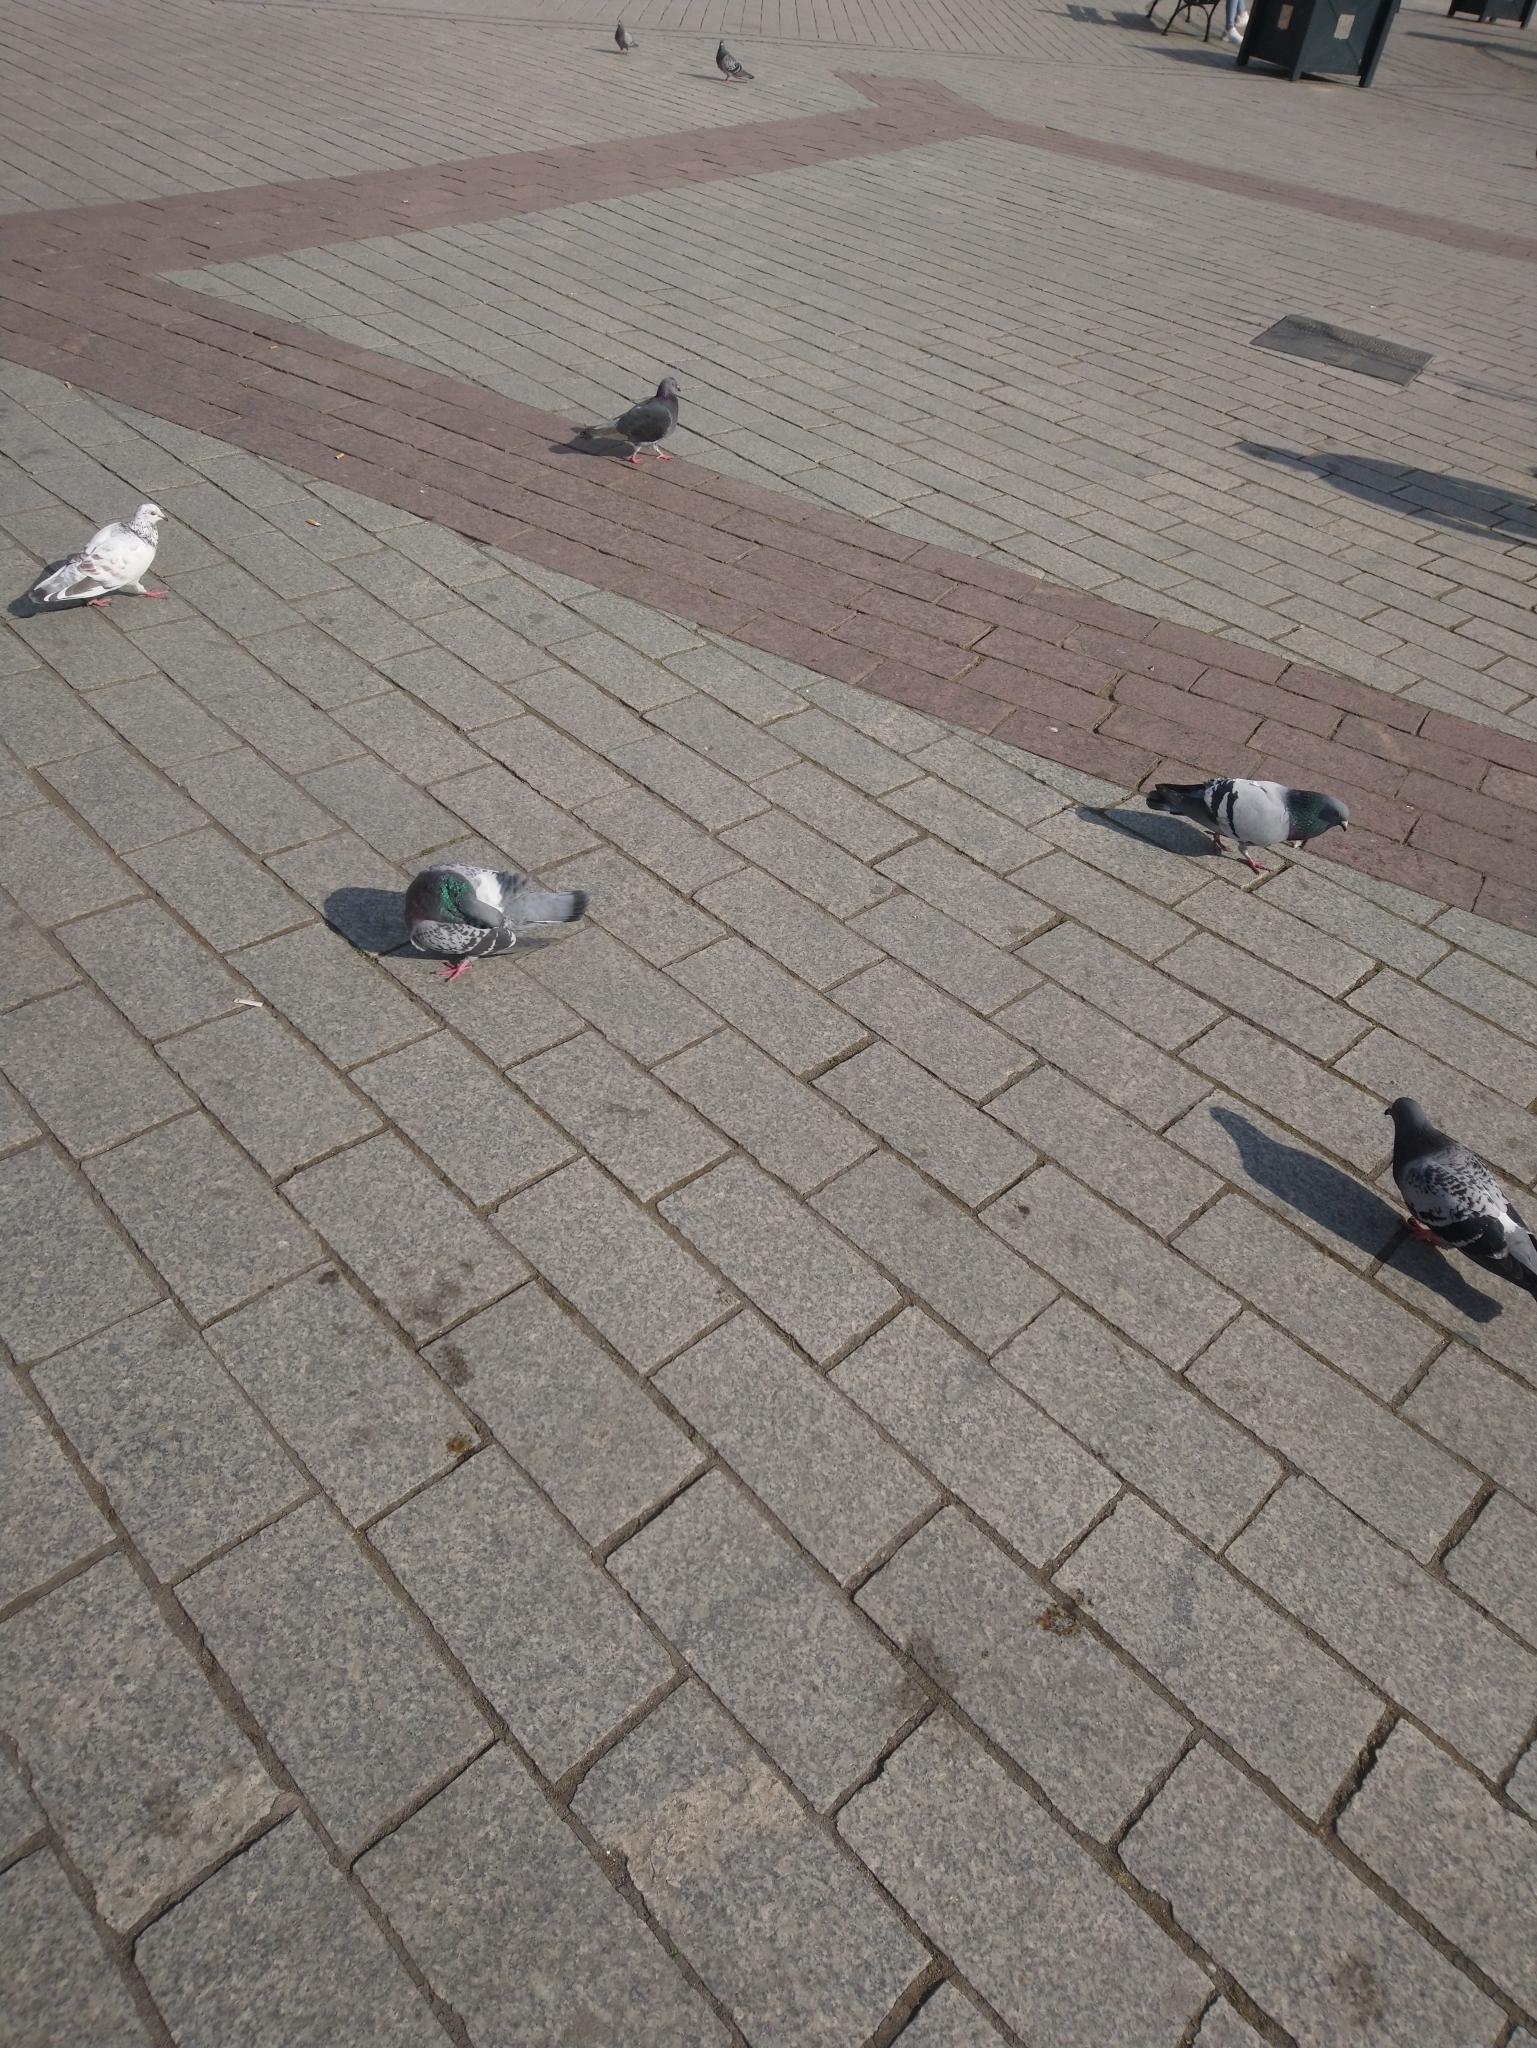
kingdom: Animalia
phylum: Chordata
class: Aves
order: Columbiformes
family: Columbidae
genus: Columba
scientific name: Columba livia
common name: Rock pigeon
